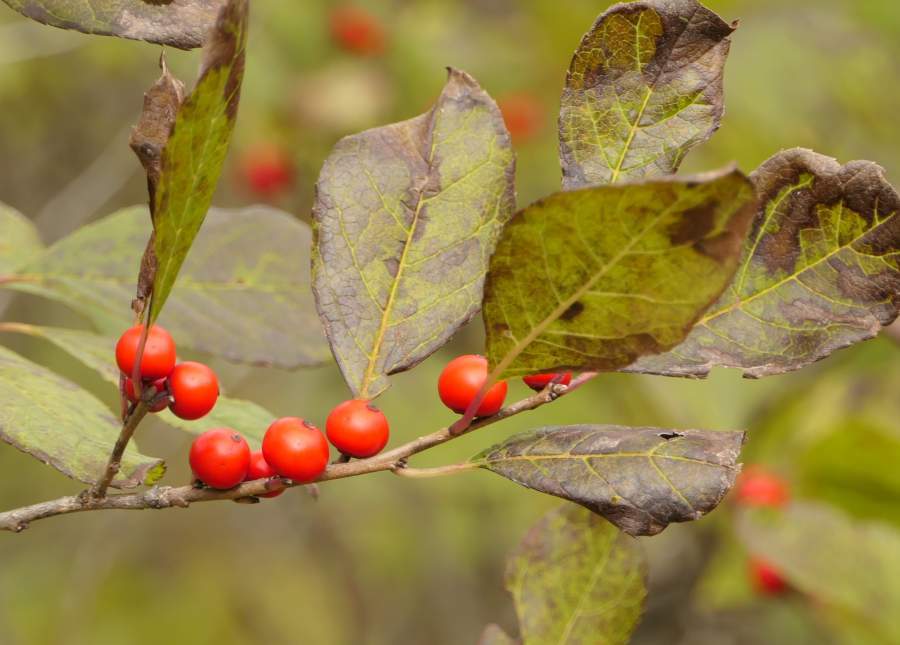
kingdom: Plantae
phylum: Tracheophyta
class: Magnoliopsida
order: Aquifoliales
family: Aquifoliaceae
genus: Ilex
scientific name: Ilex verticillata
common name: Virginia winterberry
